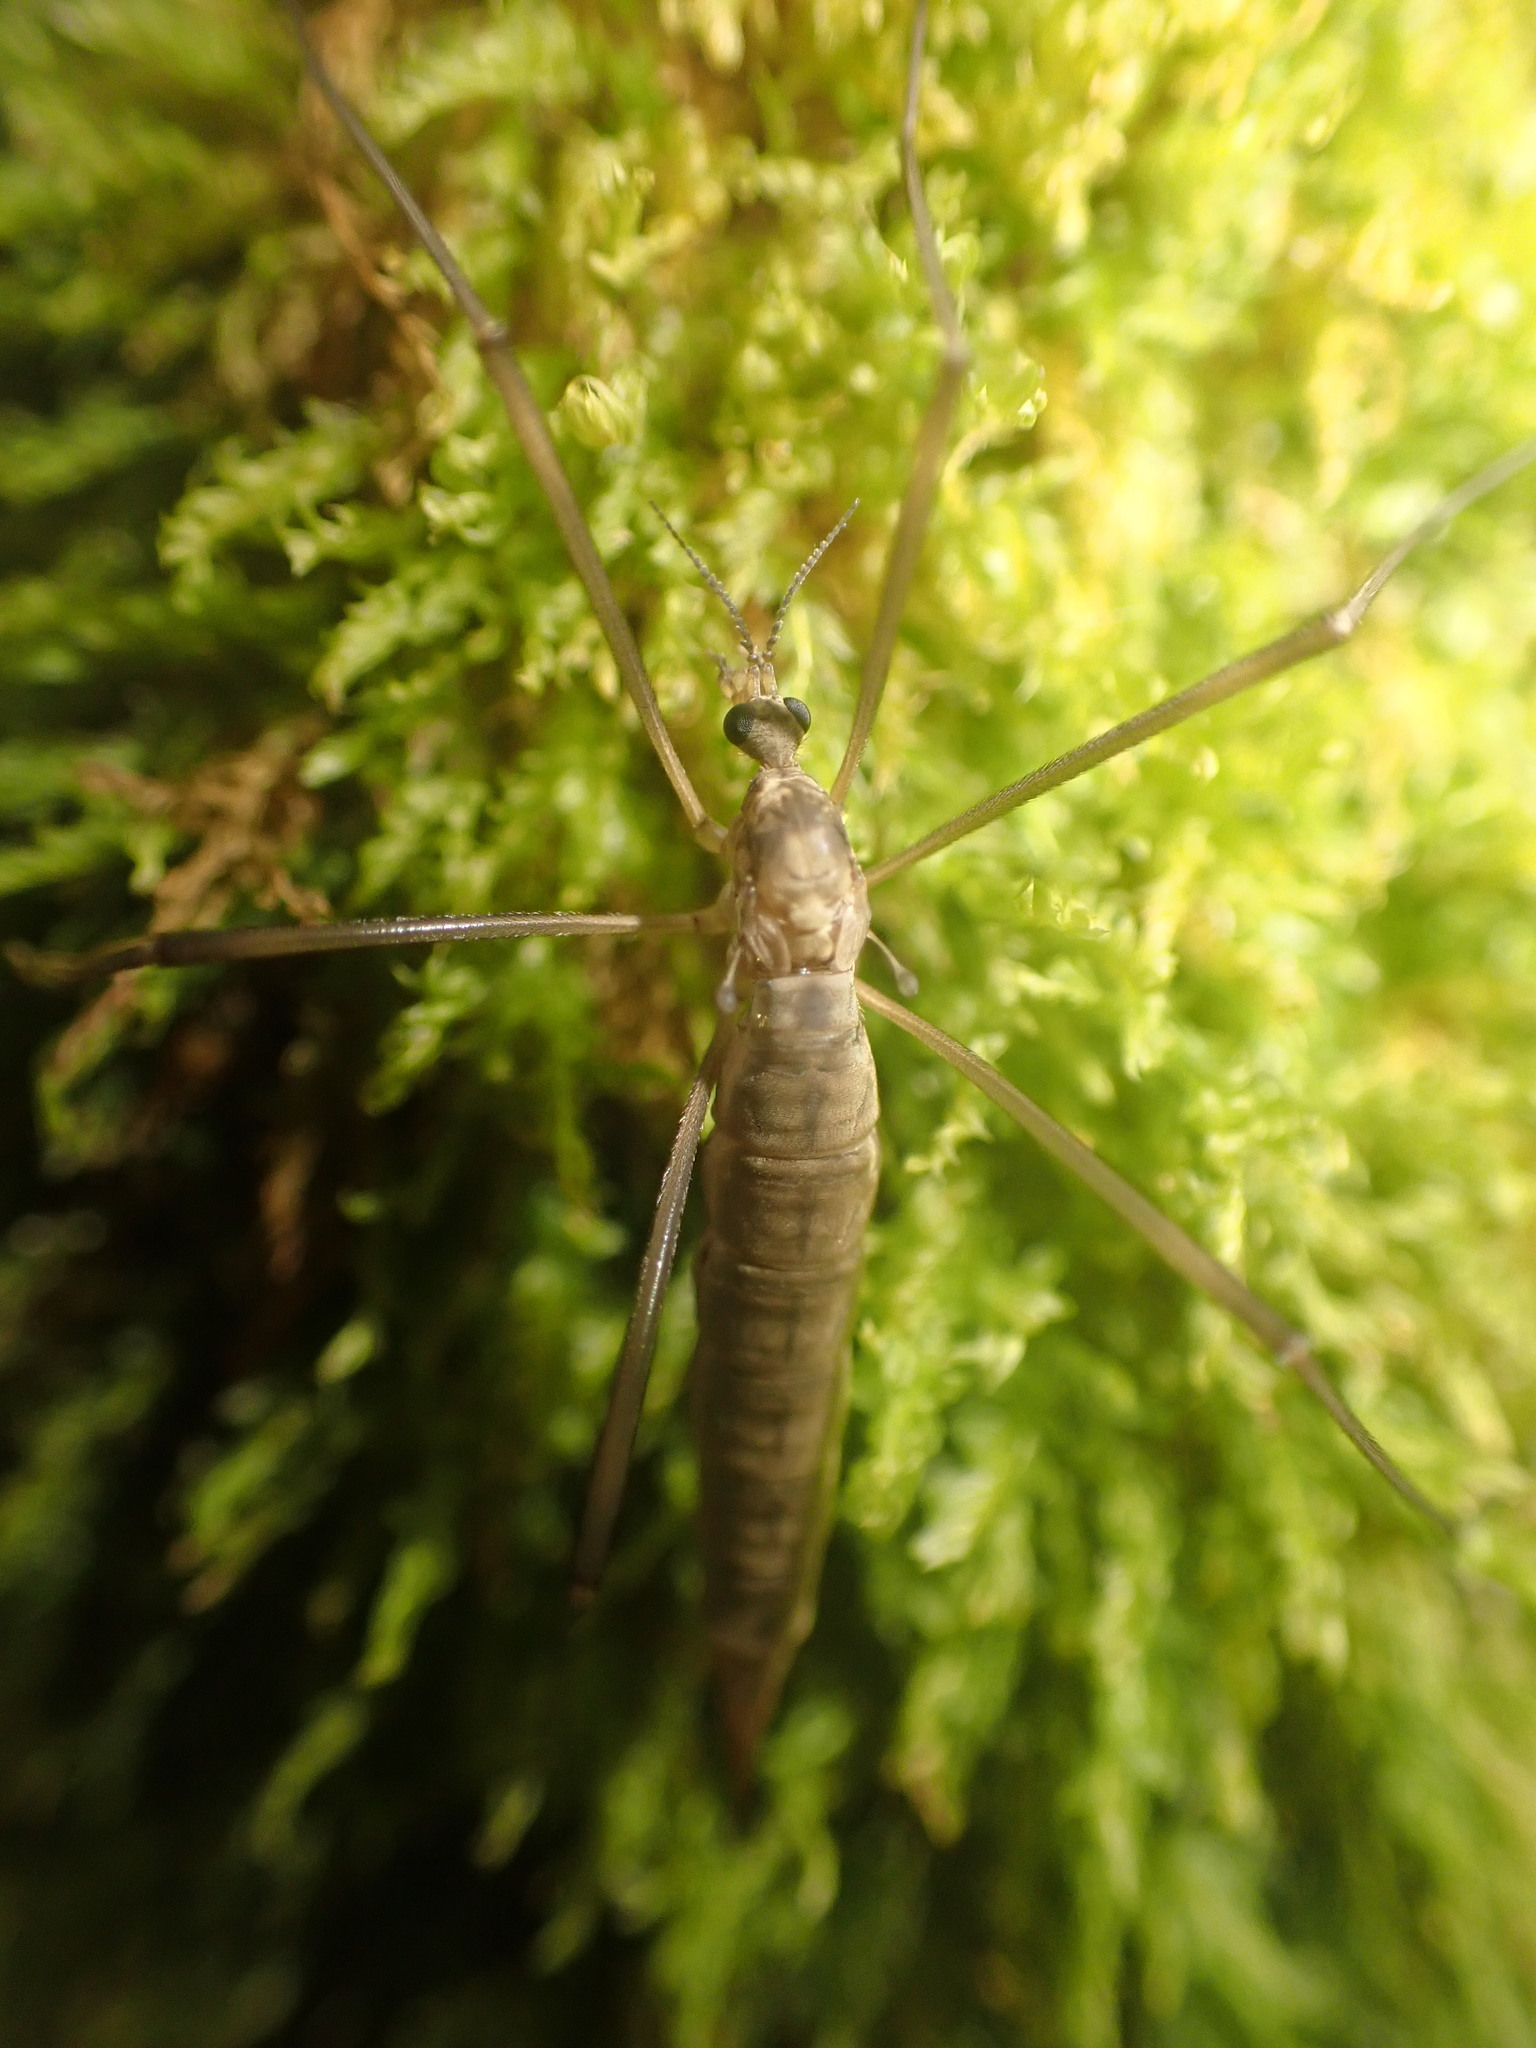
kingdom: Animalia
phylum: Arthropoda
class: Insecta
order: Diptera
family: Limoniidae
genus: Gynoplistia
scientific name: Gynoplistia chathamica
